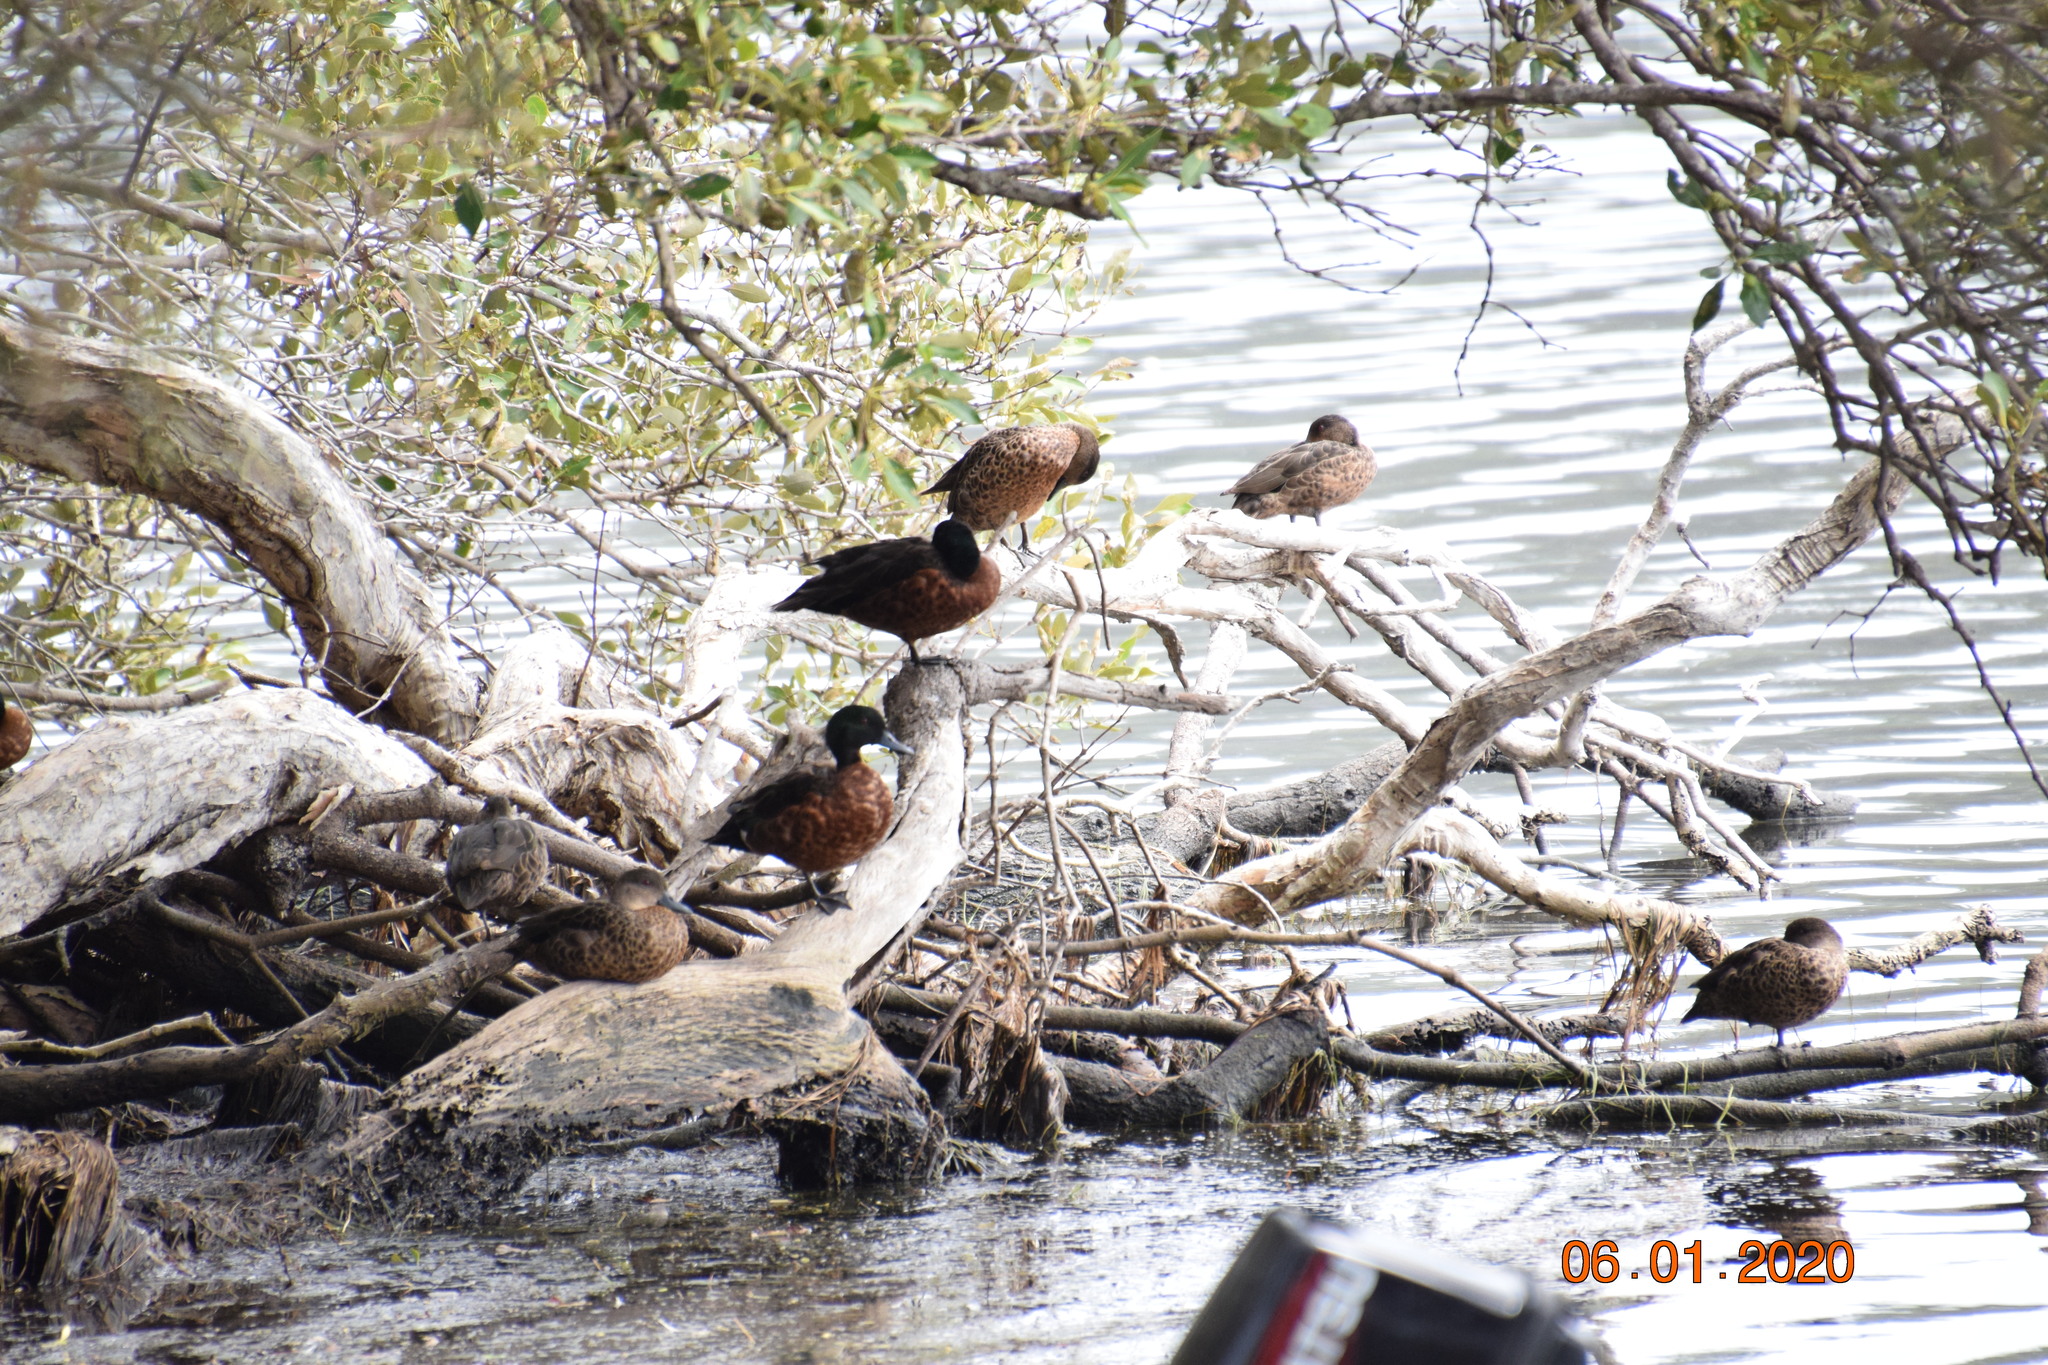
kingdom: Animalia
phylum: Chordata
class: Aves
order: Anseriformes
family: Anatidae
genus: Anas
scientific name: Anas castanea
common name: Chestnut teal
